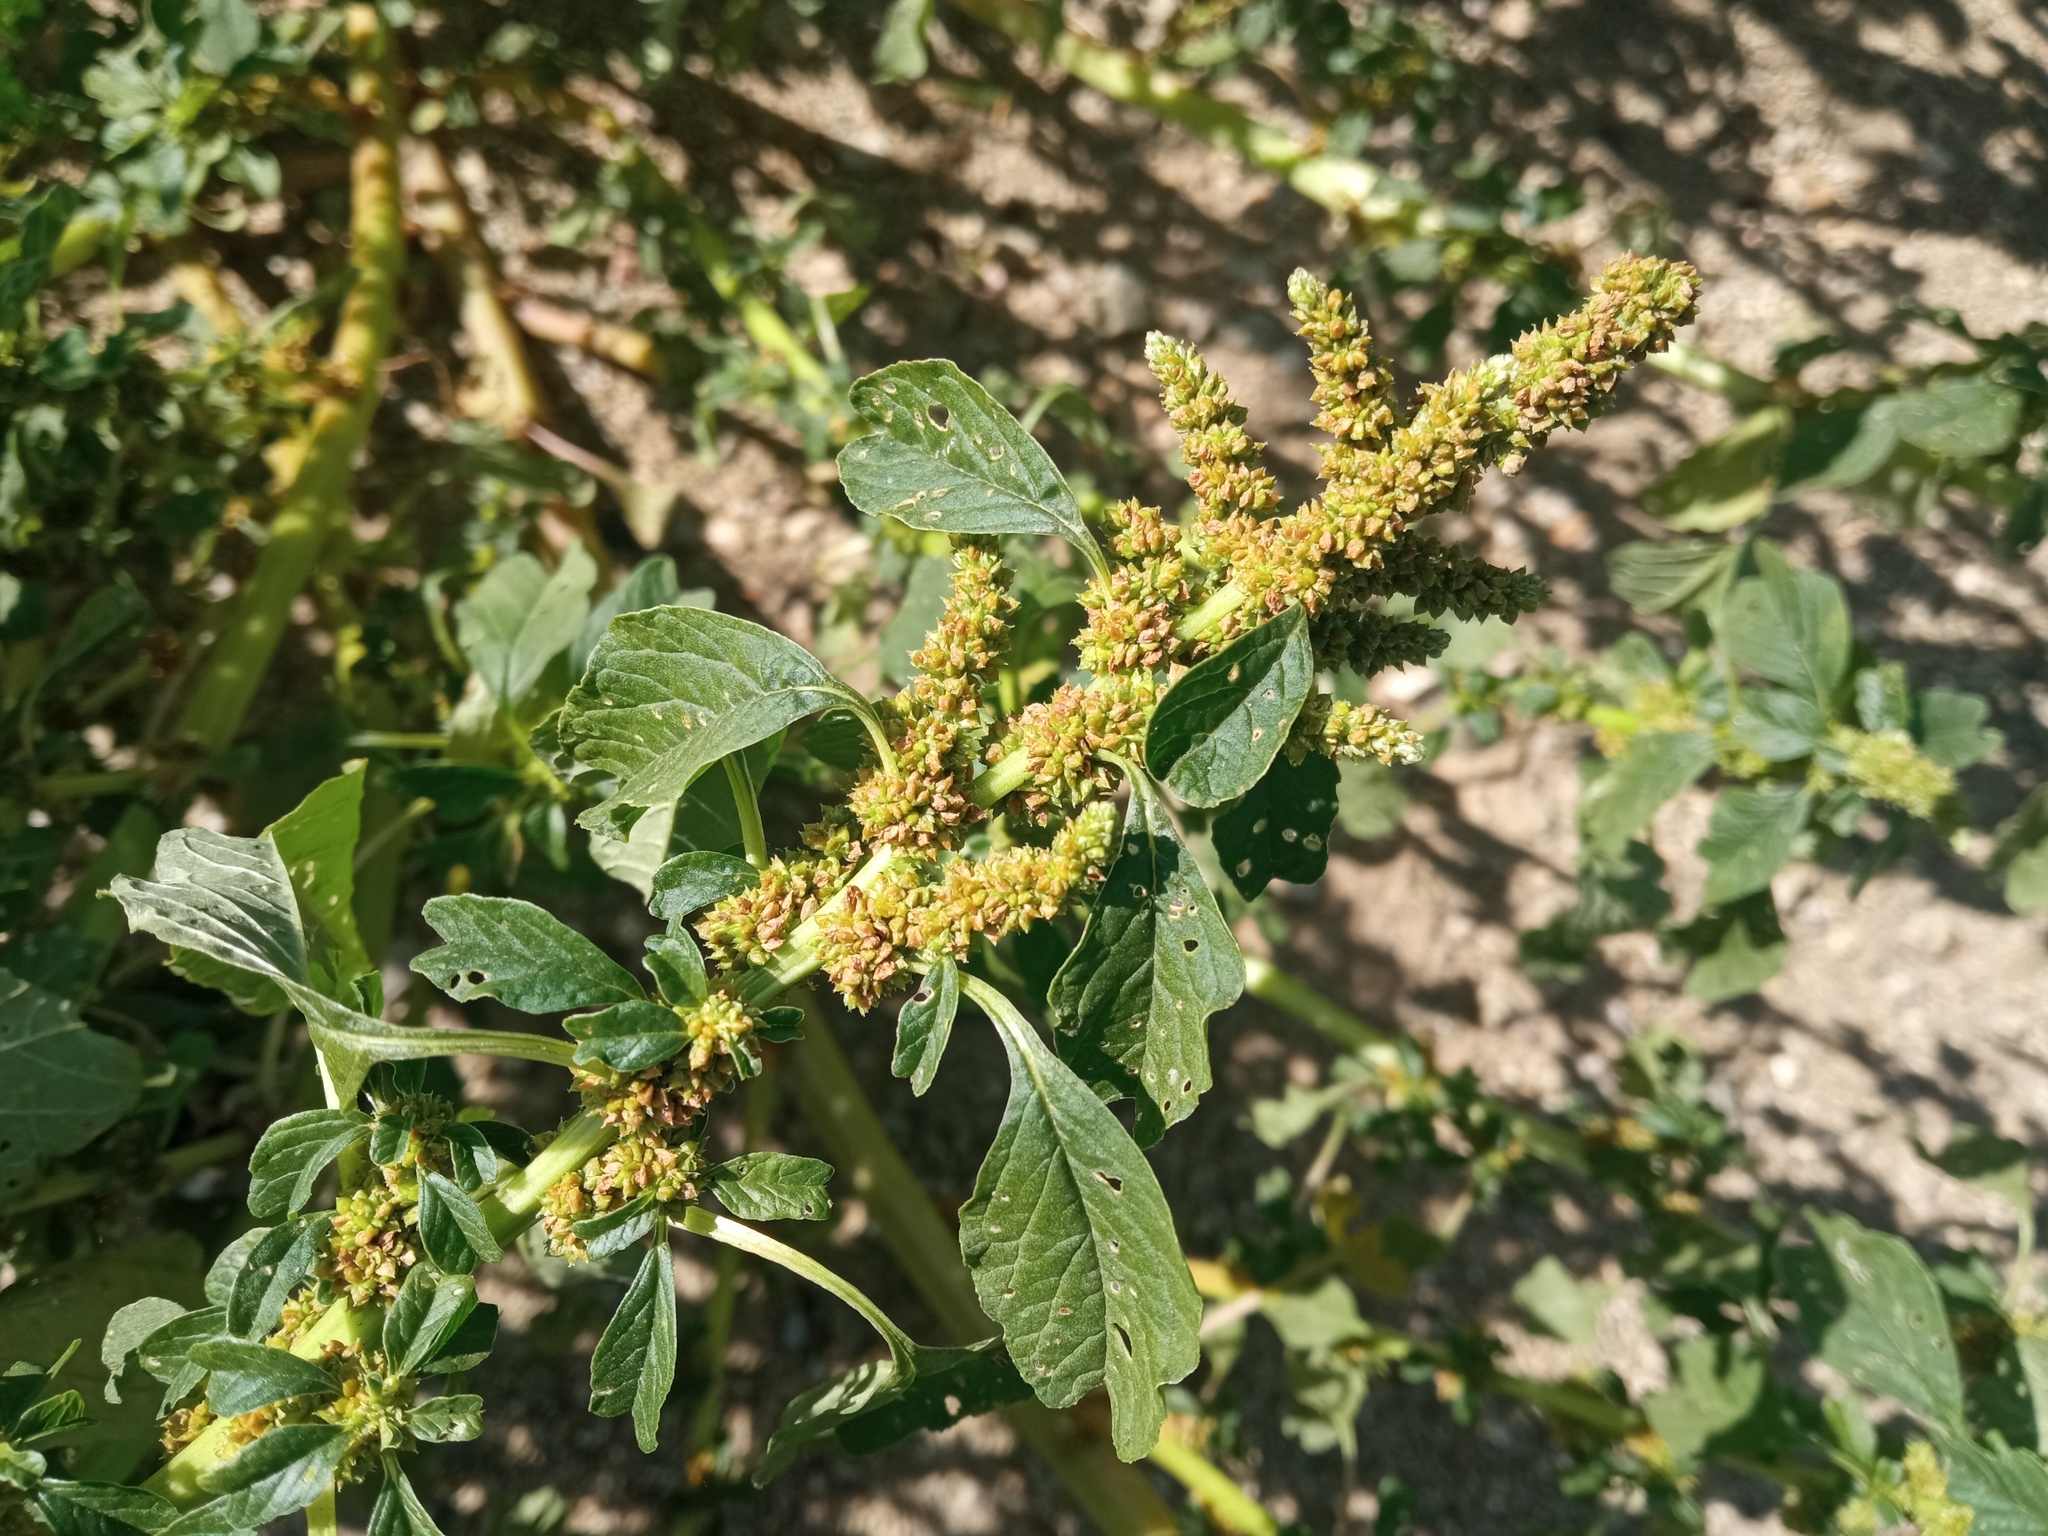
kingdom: Plantae
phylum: Tracheophyta
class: Magnoliopsida
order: Caryophyllales
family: Amaranthaceae
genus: Amaranthus
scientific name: Amaranthus emarginatus
